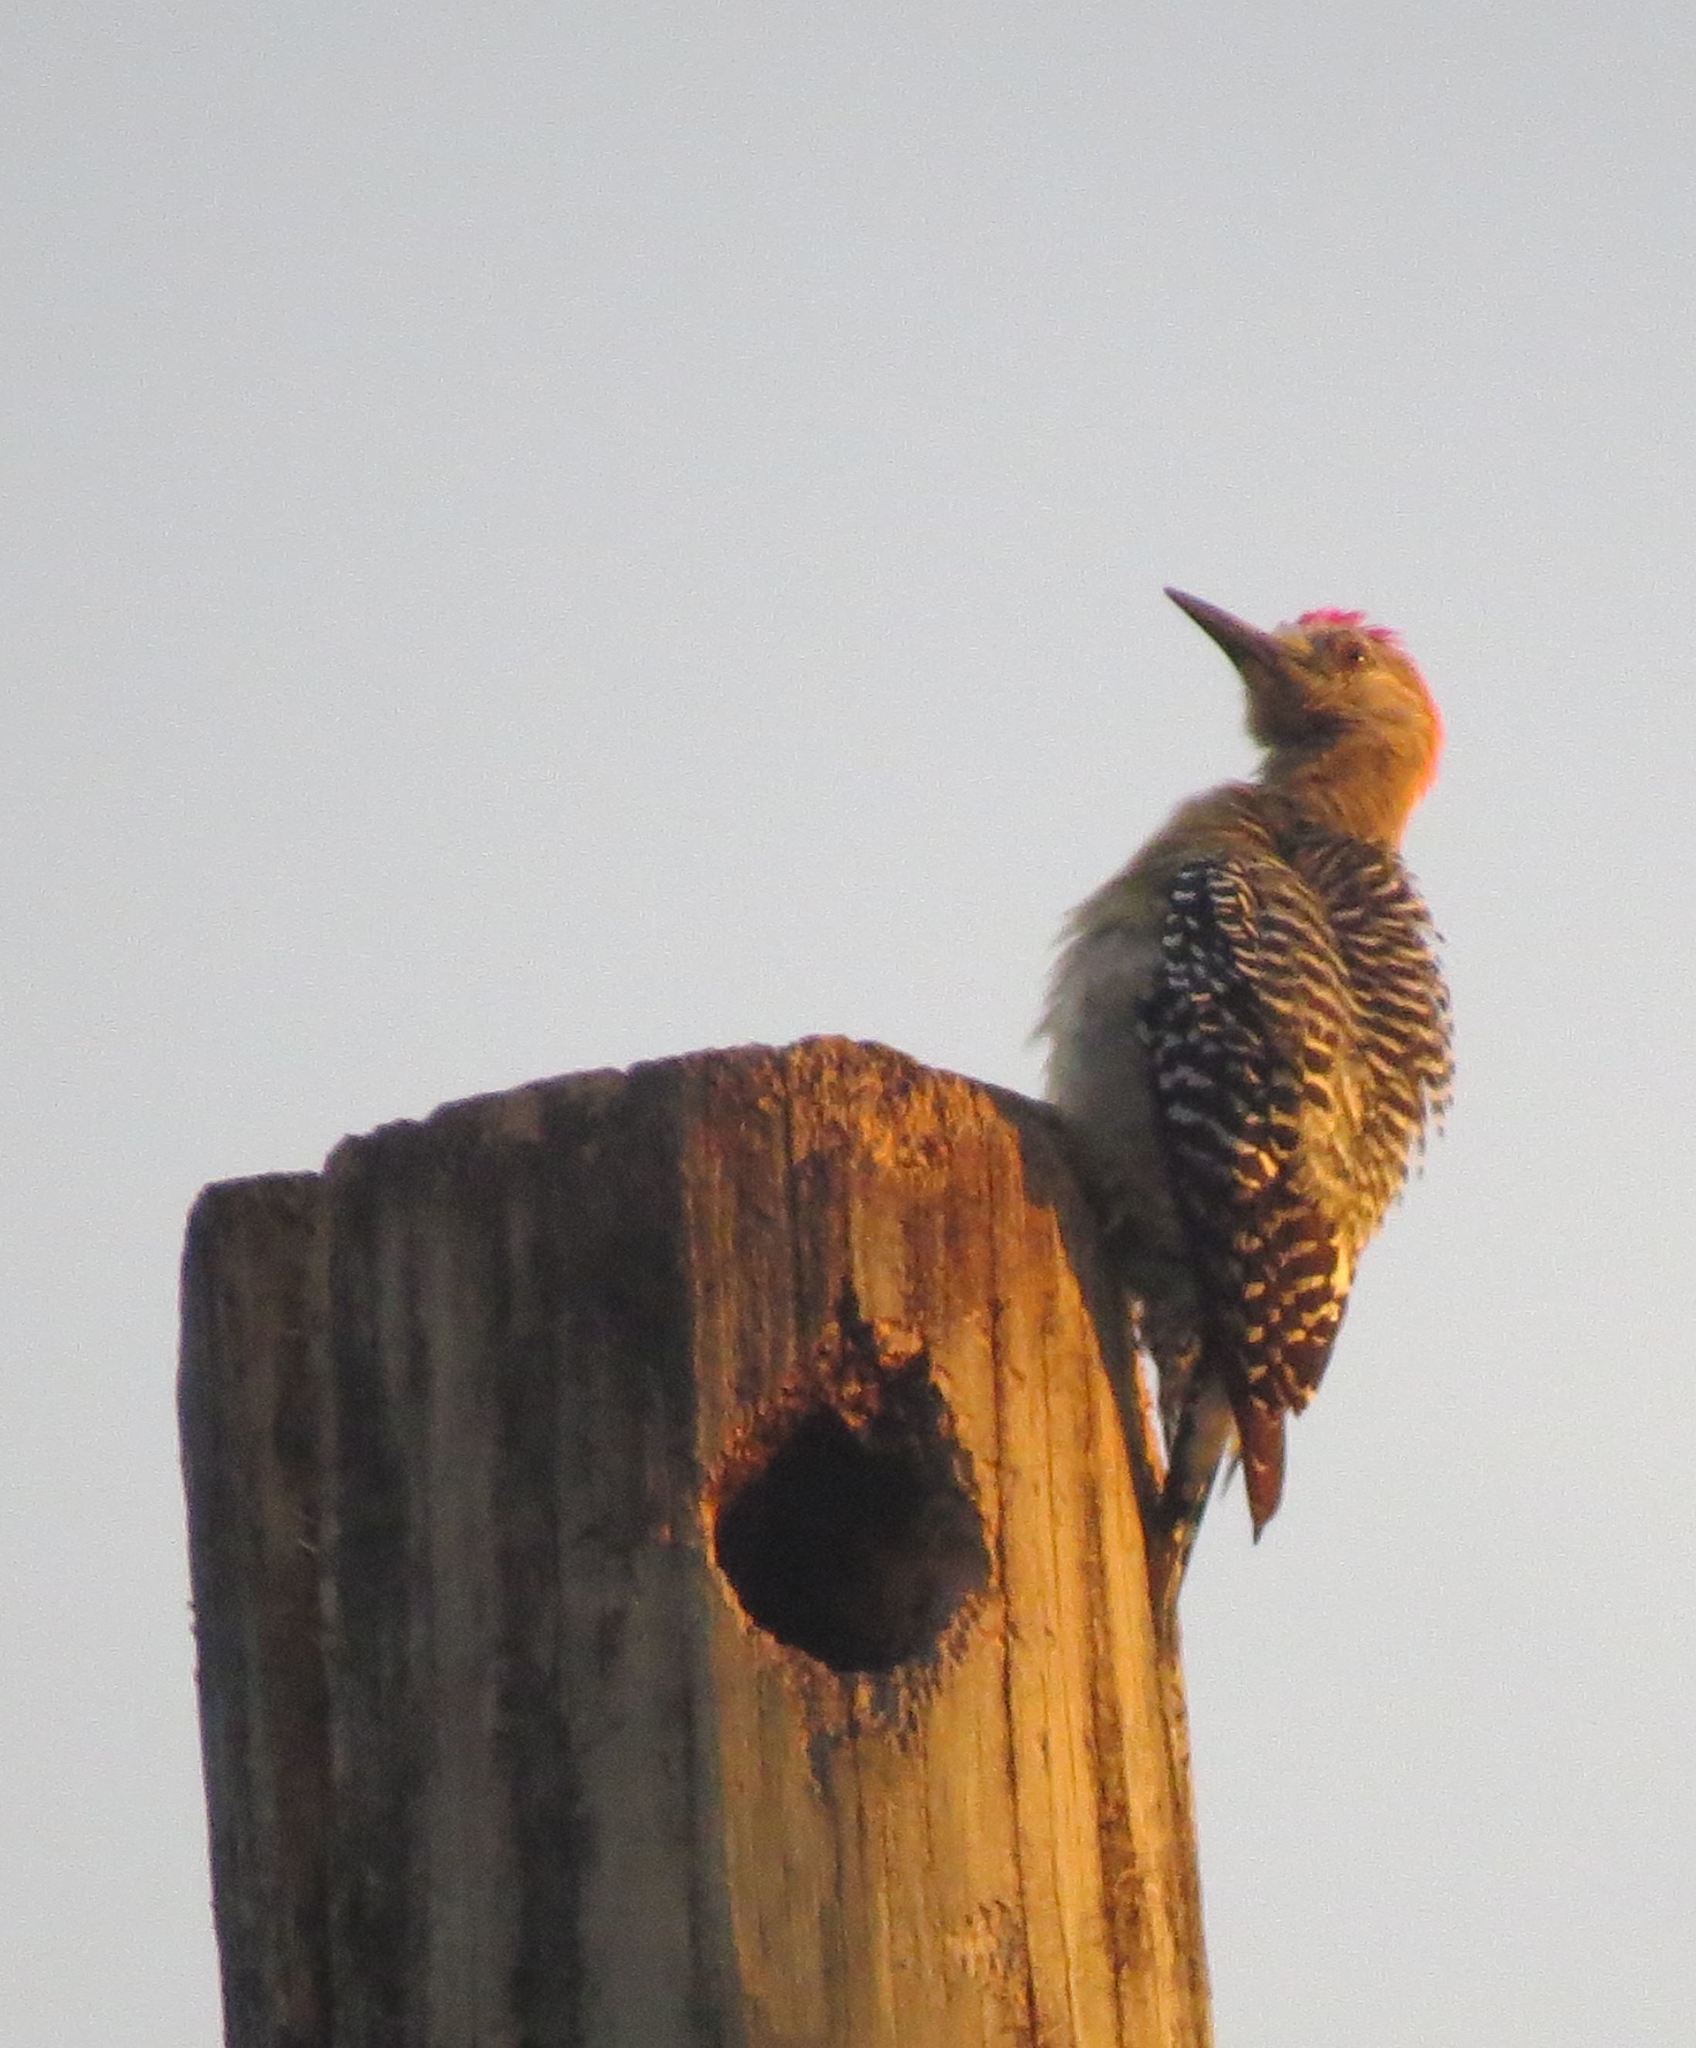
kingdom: Animalia
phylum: Chordata
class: Aves
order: Piciformes
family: Picidae
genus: Melanerpes
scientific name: Melanerpes rubricapillus
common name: Red-crowned woodpecker
